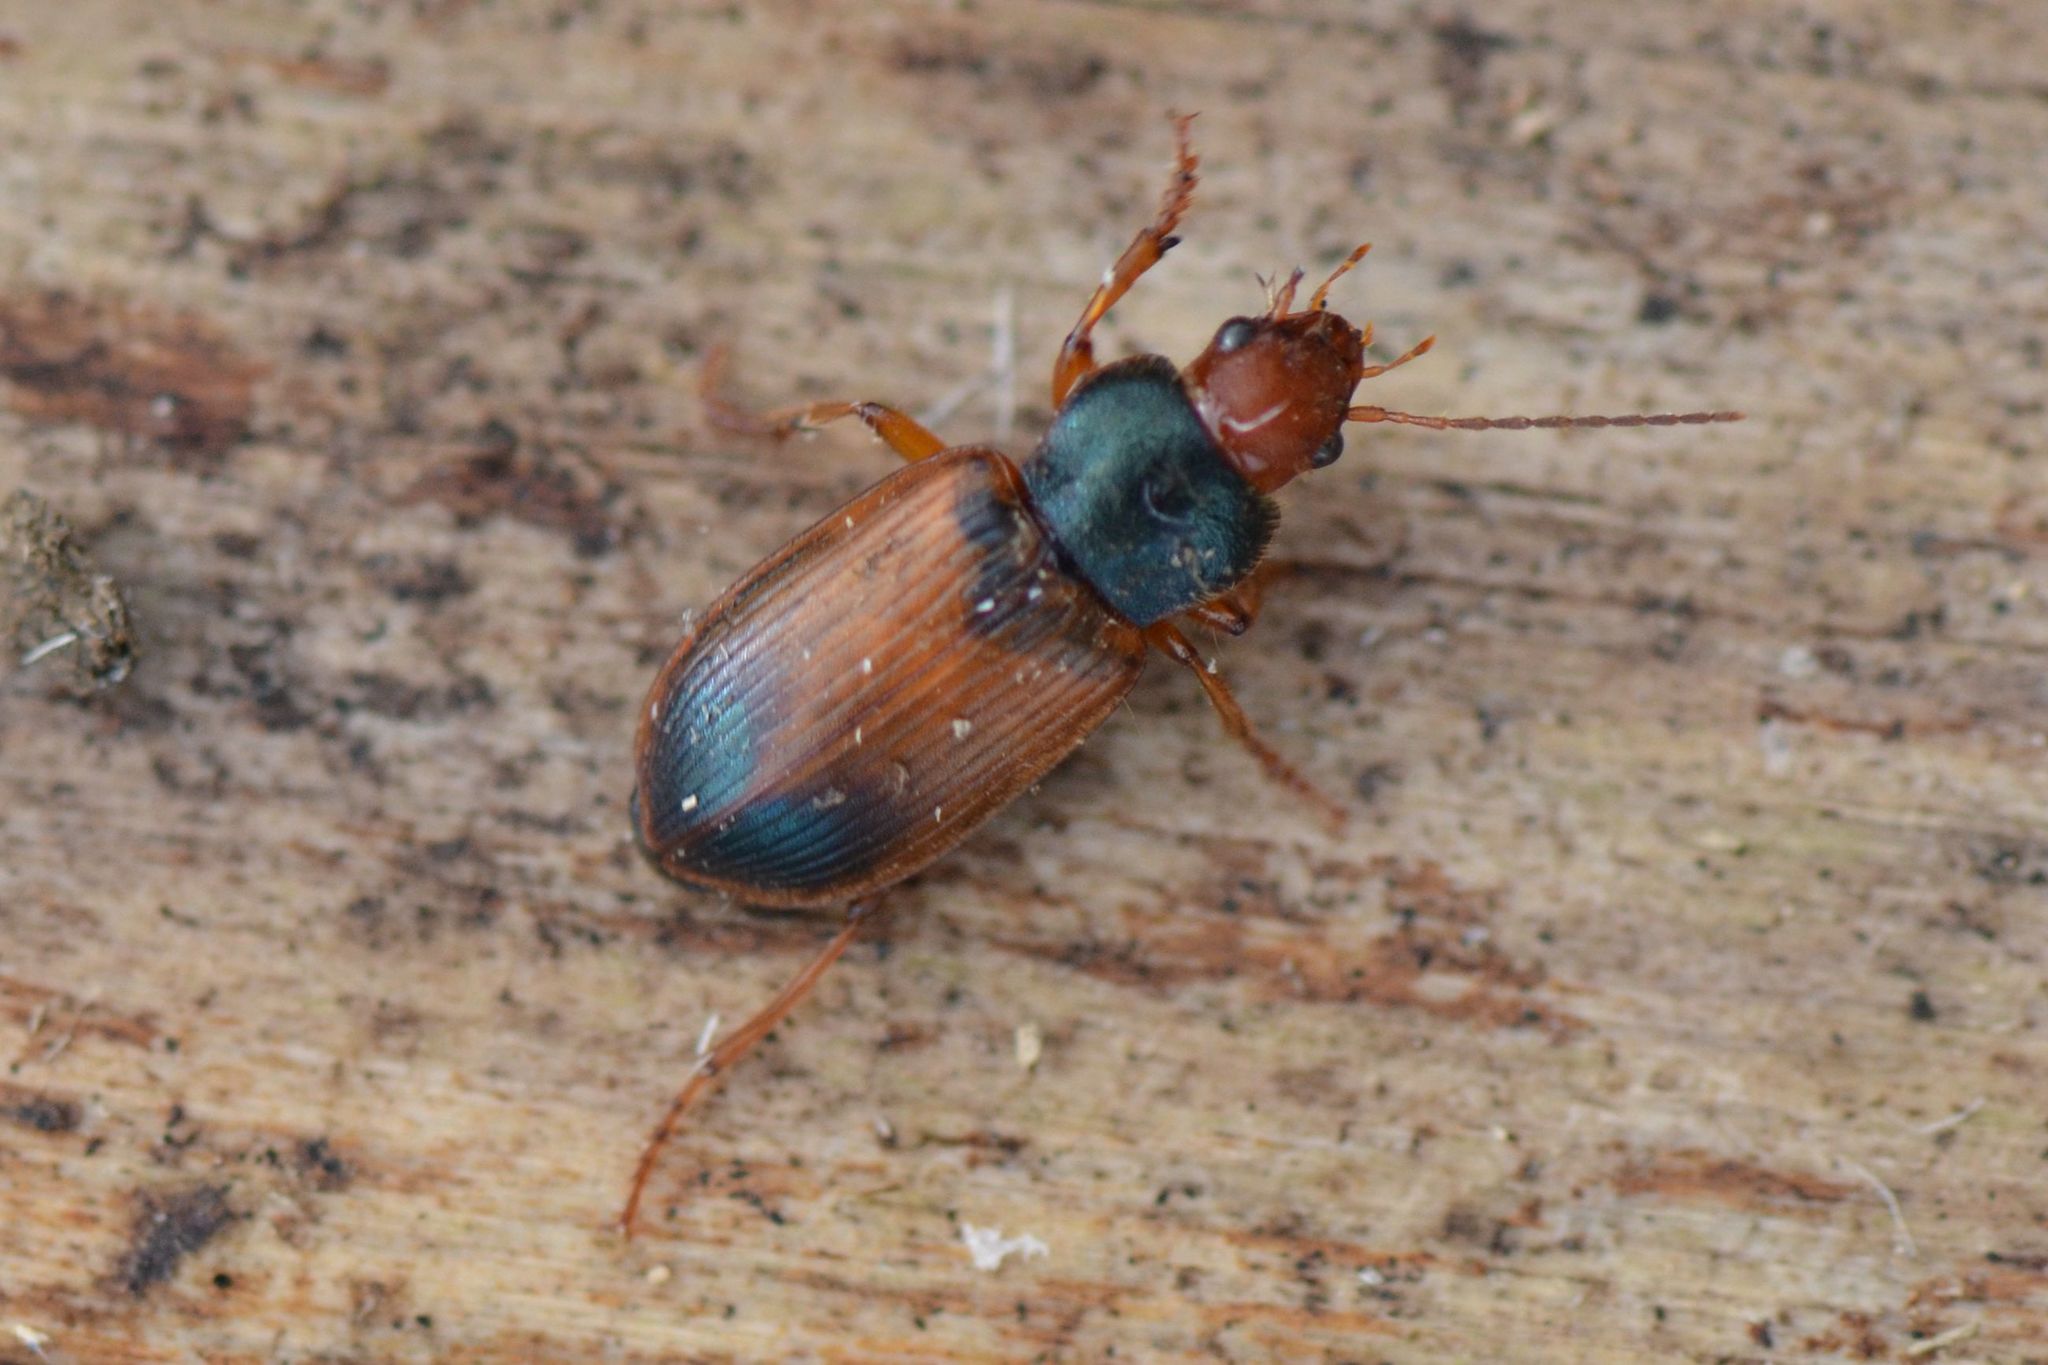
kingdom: Animalia
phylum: Arthropoda
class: Insecta
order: Coleoptera
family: Carabidae
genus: Diachromus
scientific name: Diachromus germanus
